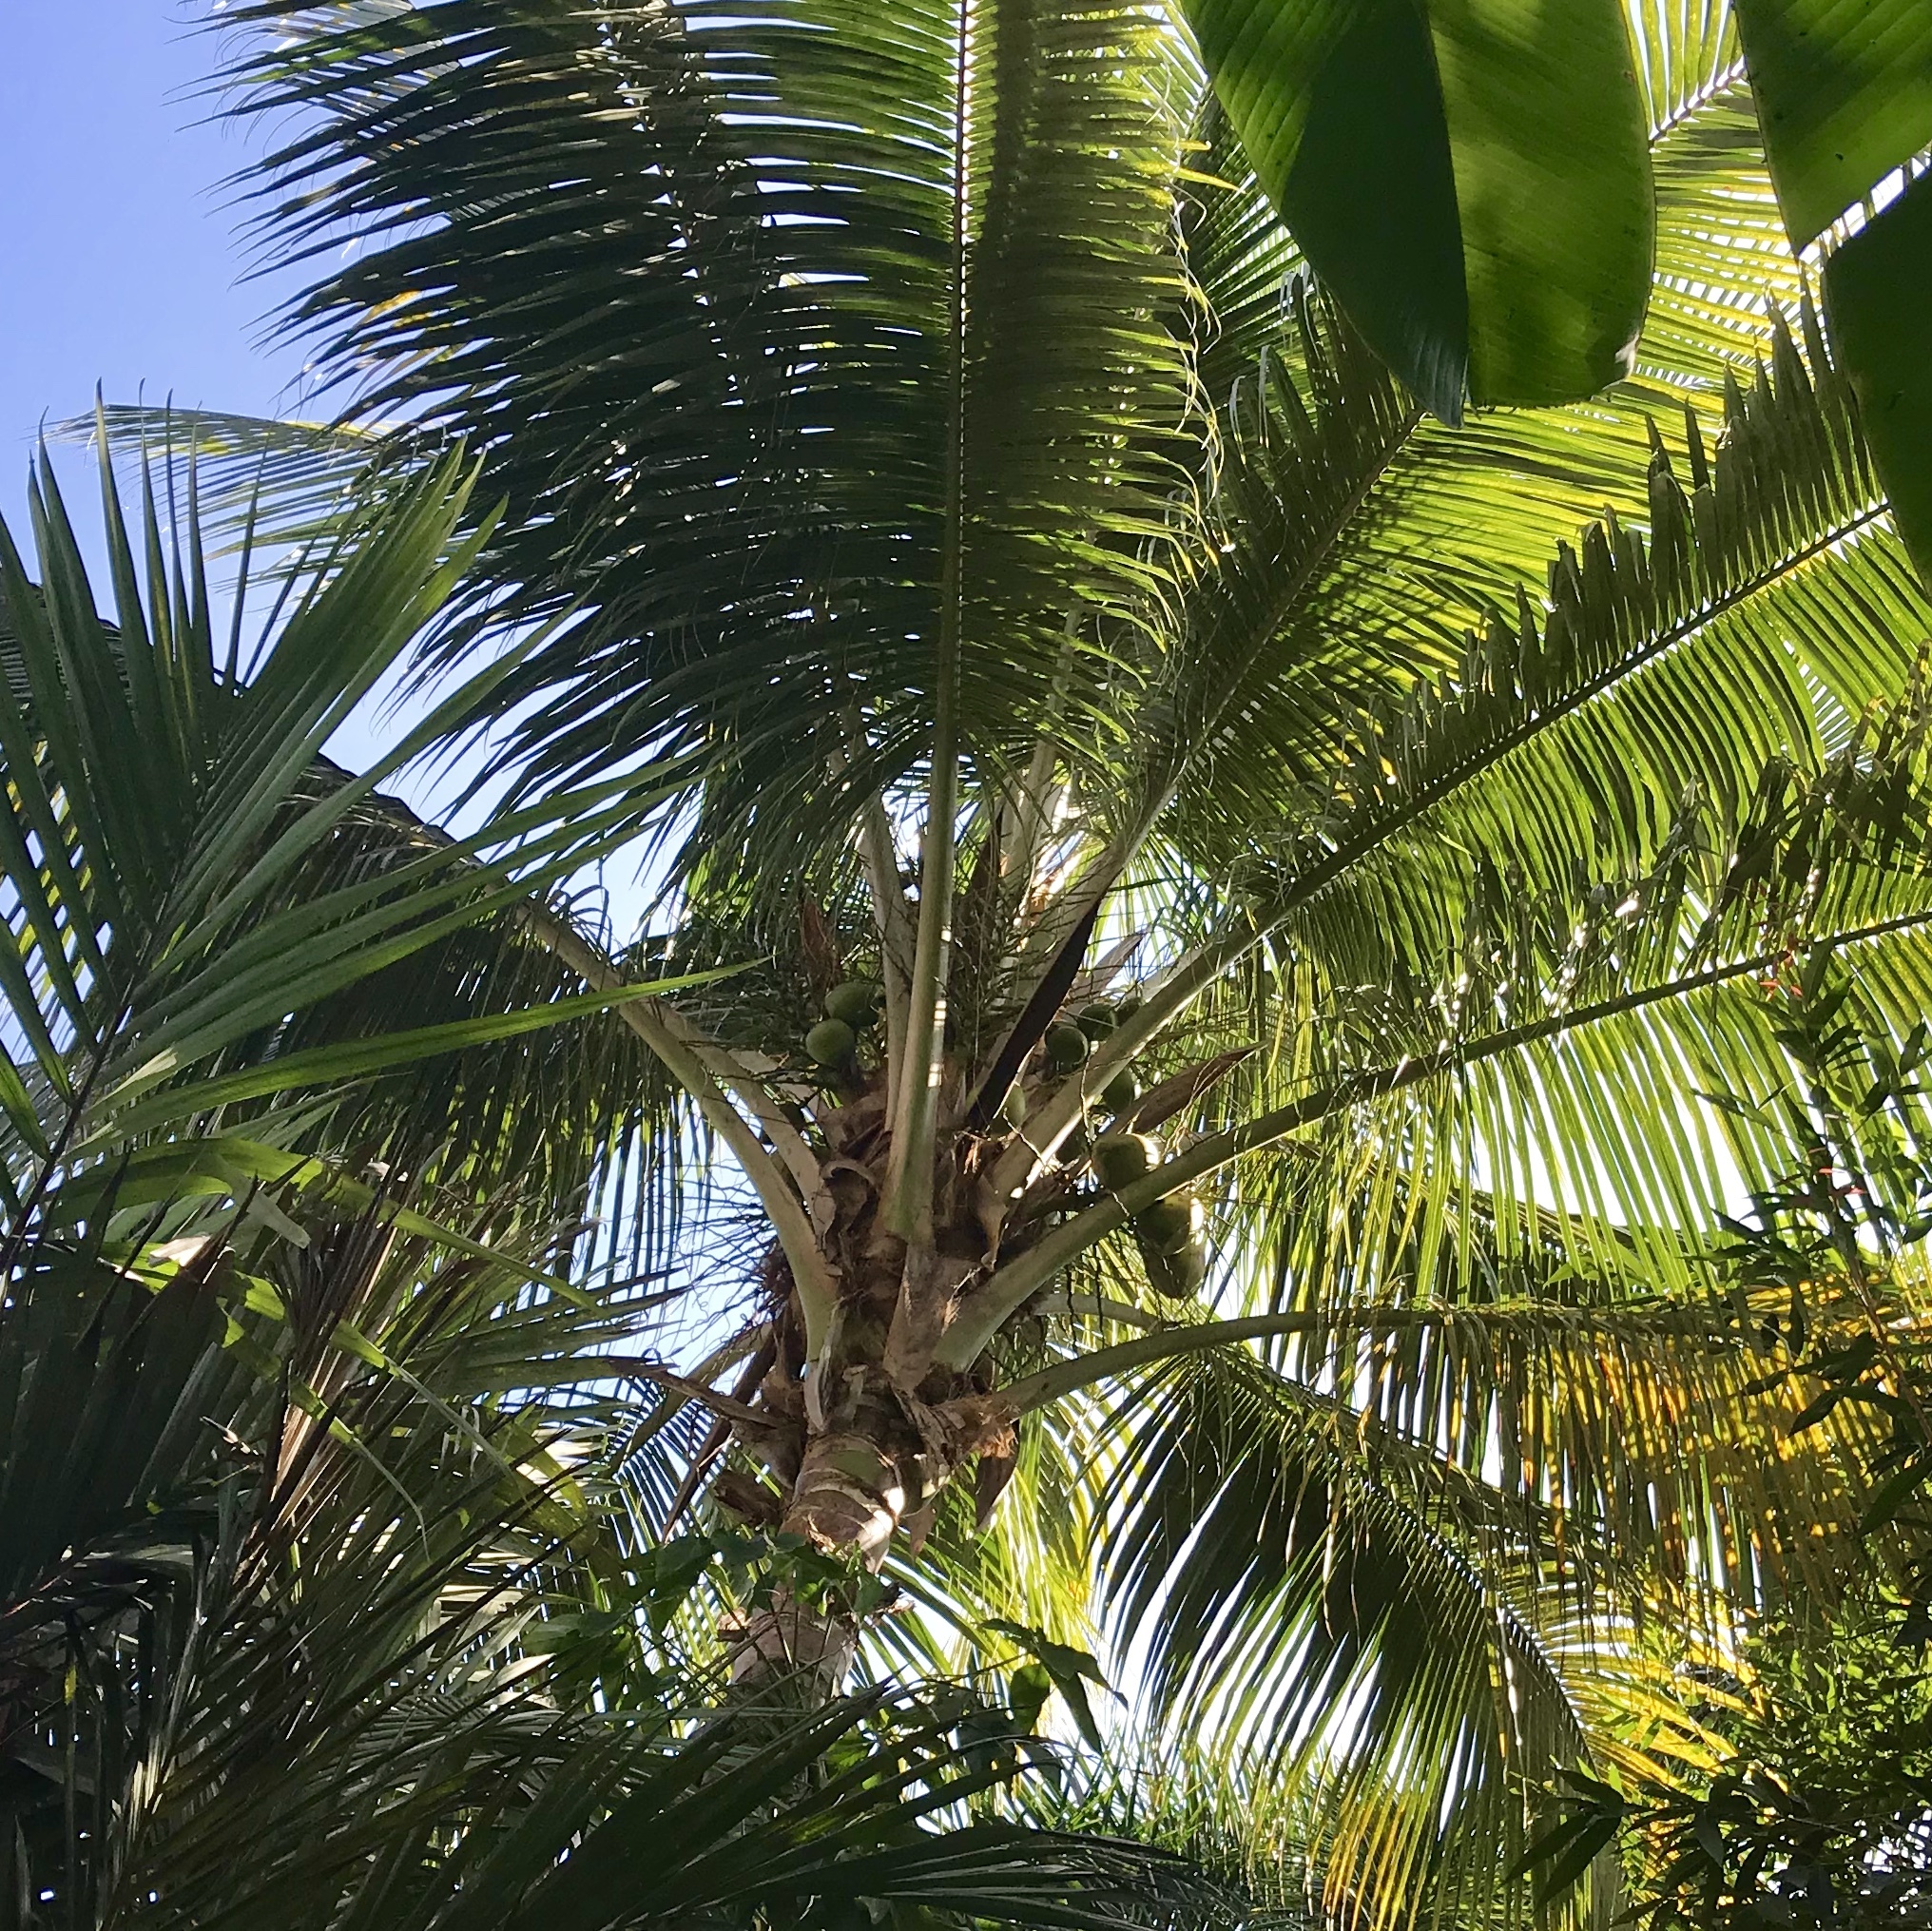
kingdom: Plantae
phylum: Tracheophyta
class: Liliopsida
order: Arecales
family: Arecaceae
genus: Cocos
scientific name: Cocos nucifera
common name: Coconut palm
